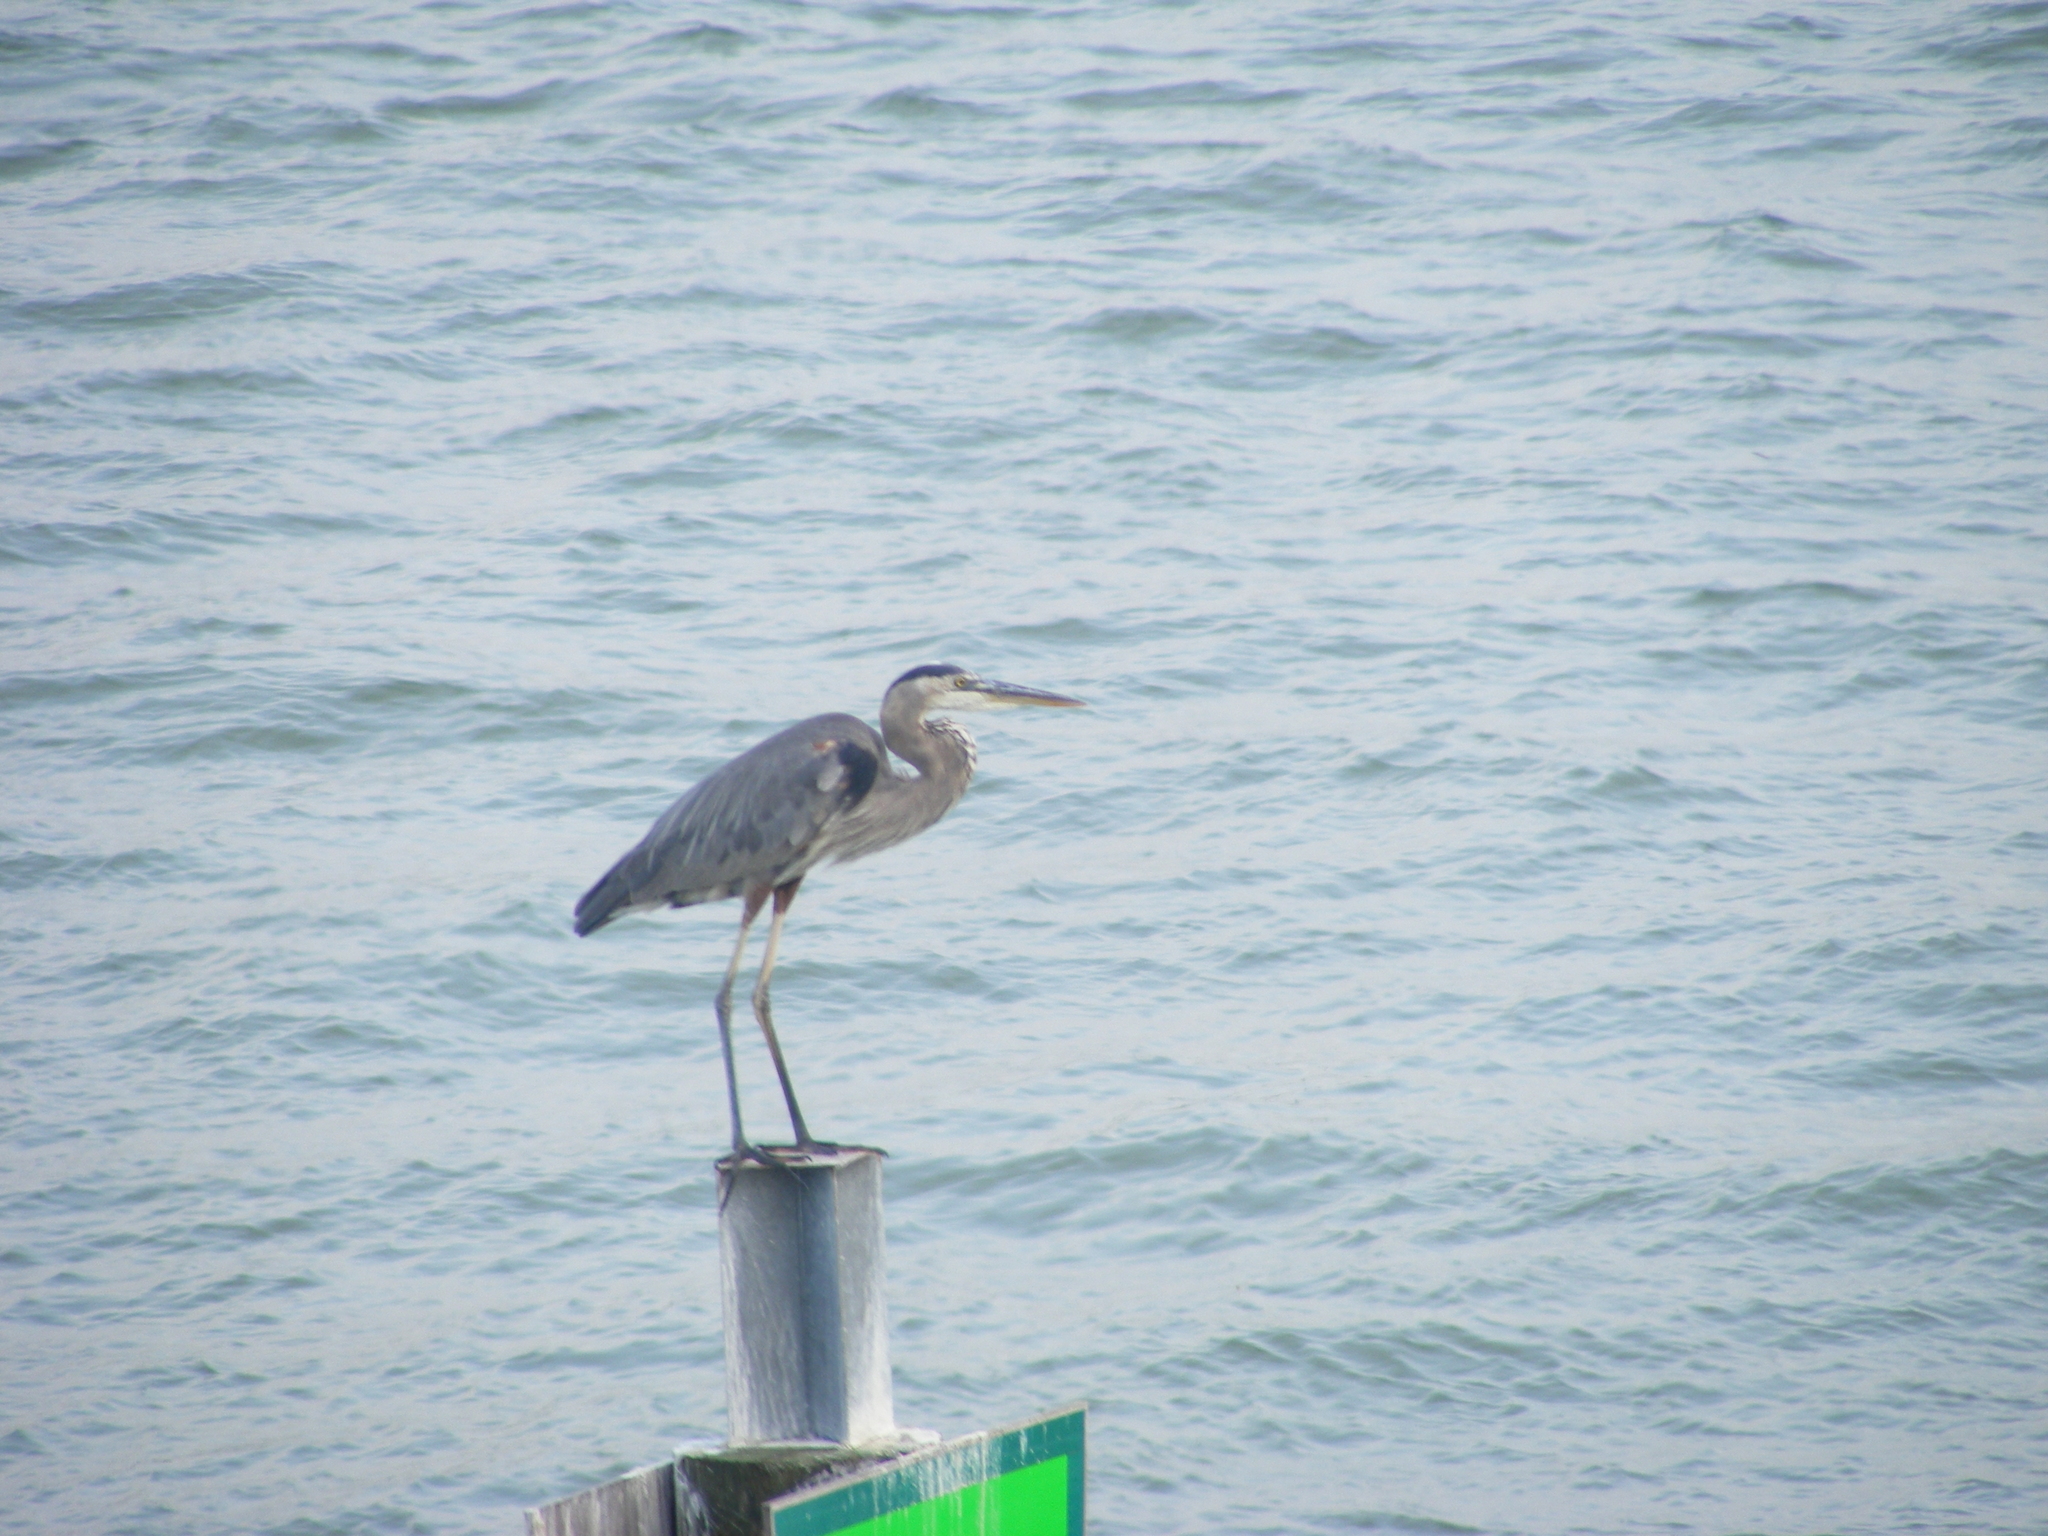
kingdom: Animalia
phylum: Chordata
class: Aves
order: Pelecaniformes
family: Ardeidae
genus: Ardea
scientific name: Ardea herodias
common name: Great blue heron
